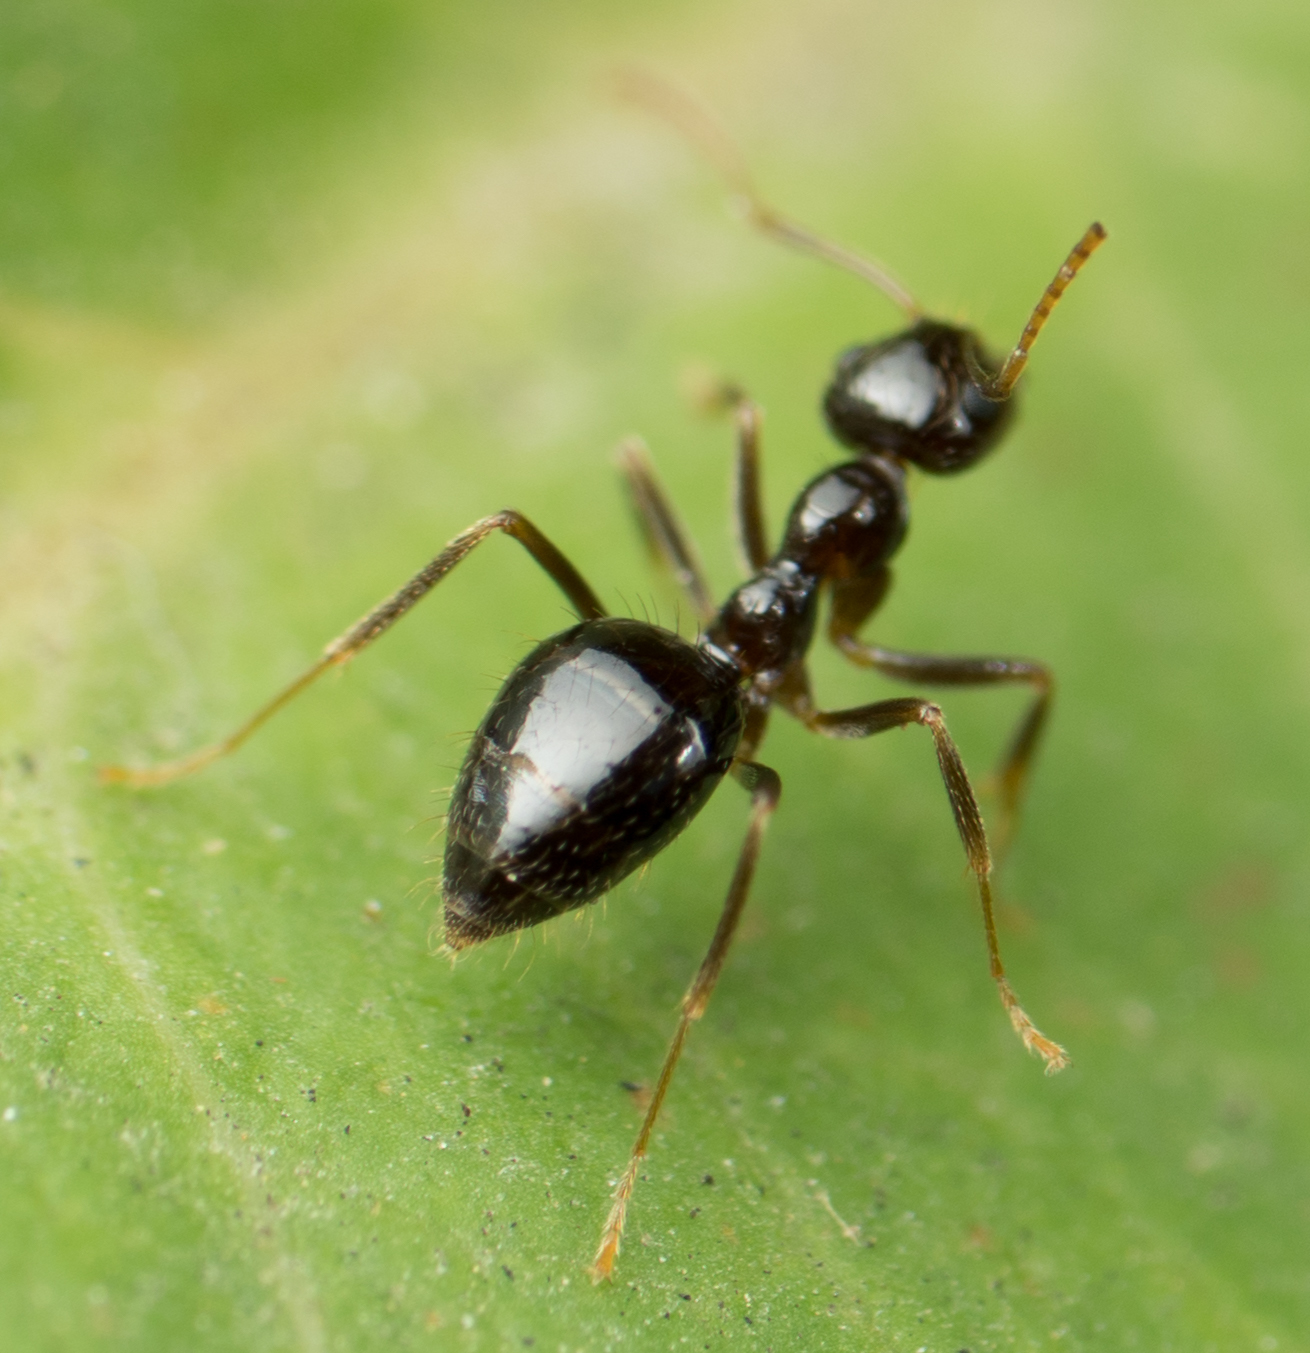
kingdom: Animalia
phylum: Arthropoda
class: Insecta
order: Hymenoptera
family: Formicidae
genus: Prenolepis
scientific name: Prenolepis imparis
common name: Small honey ant
